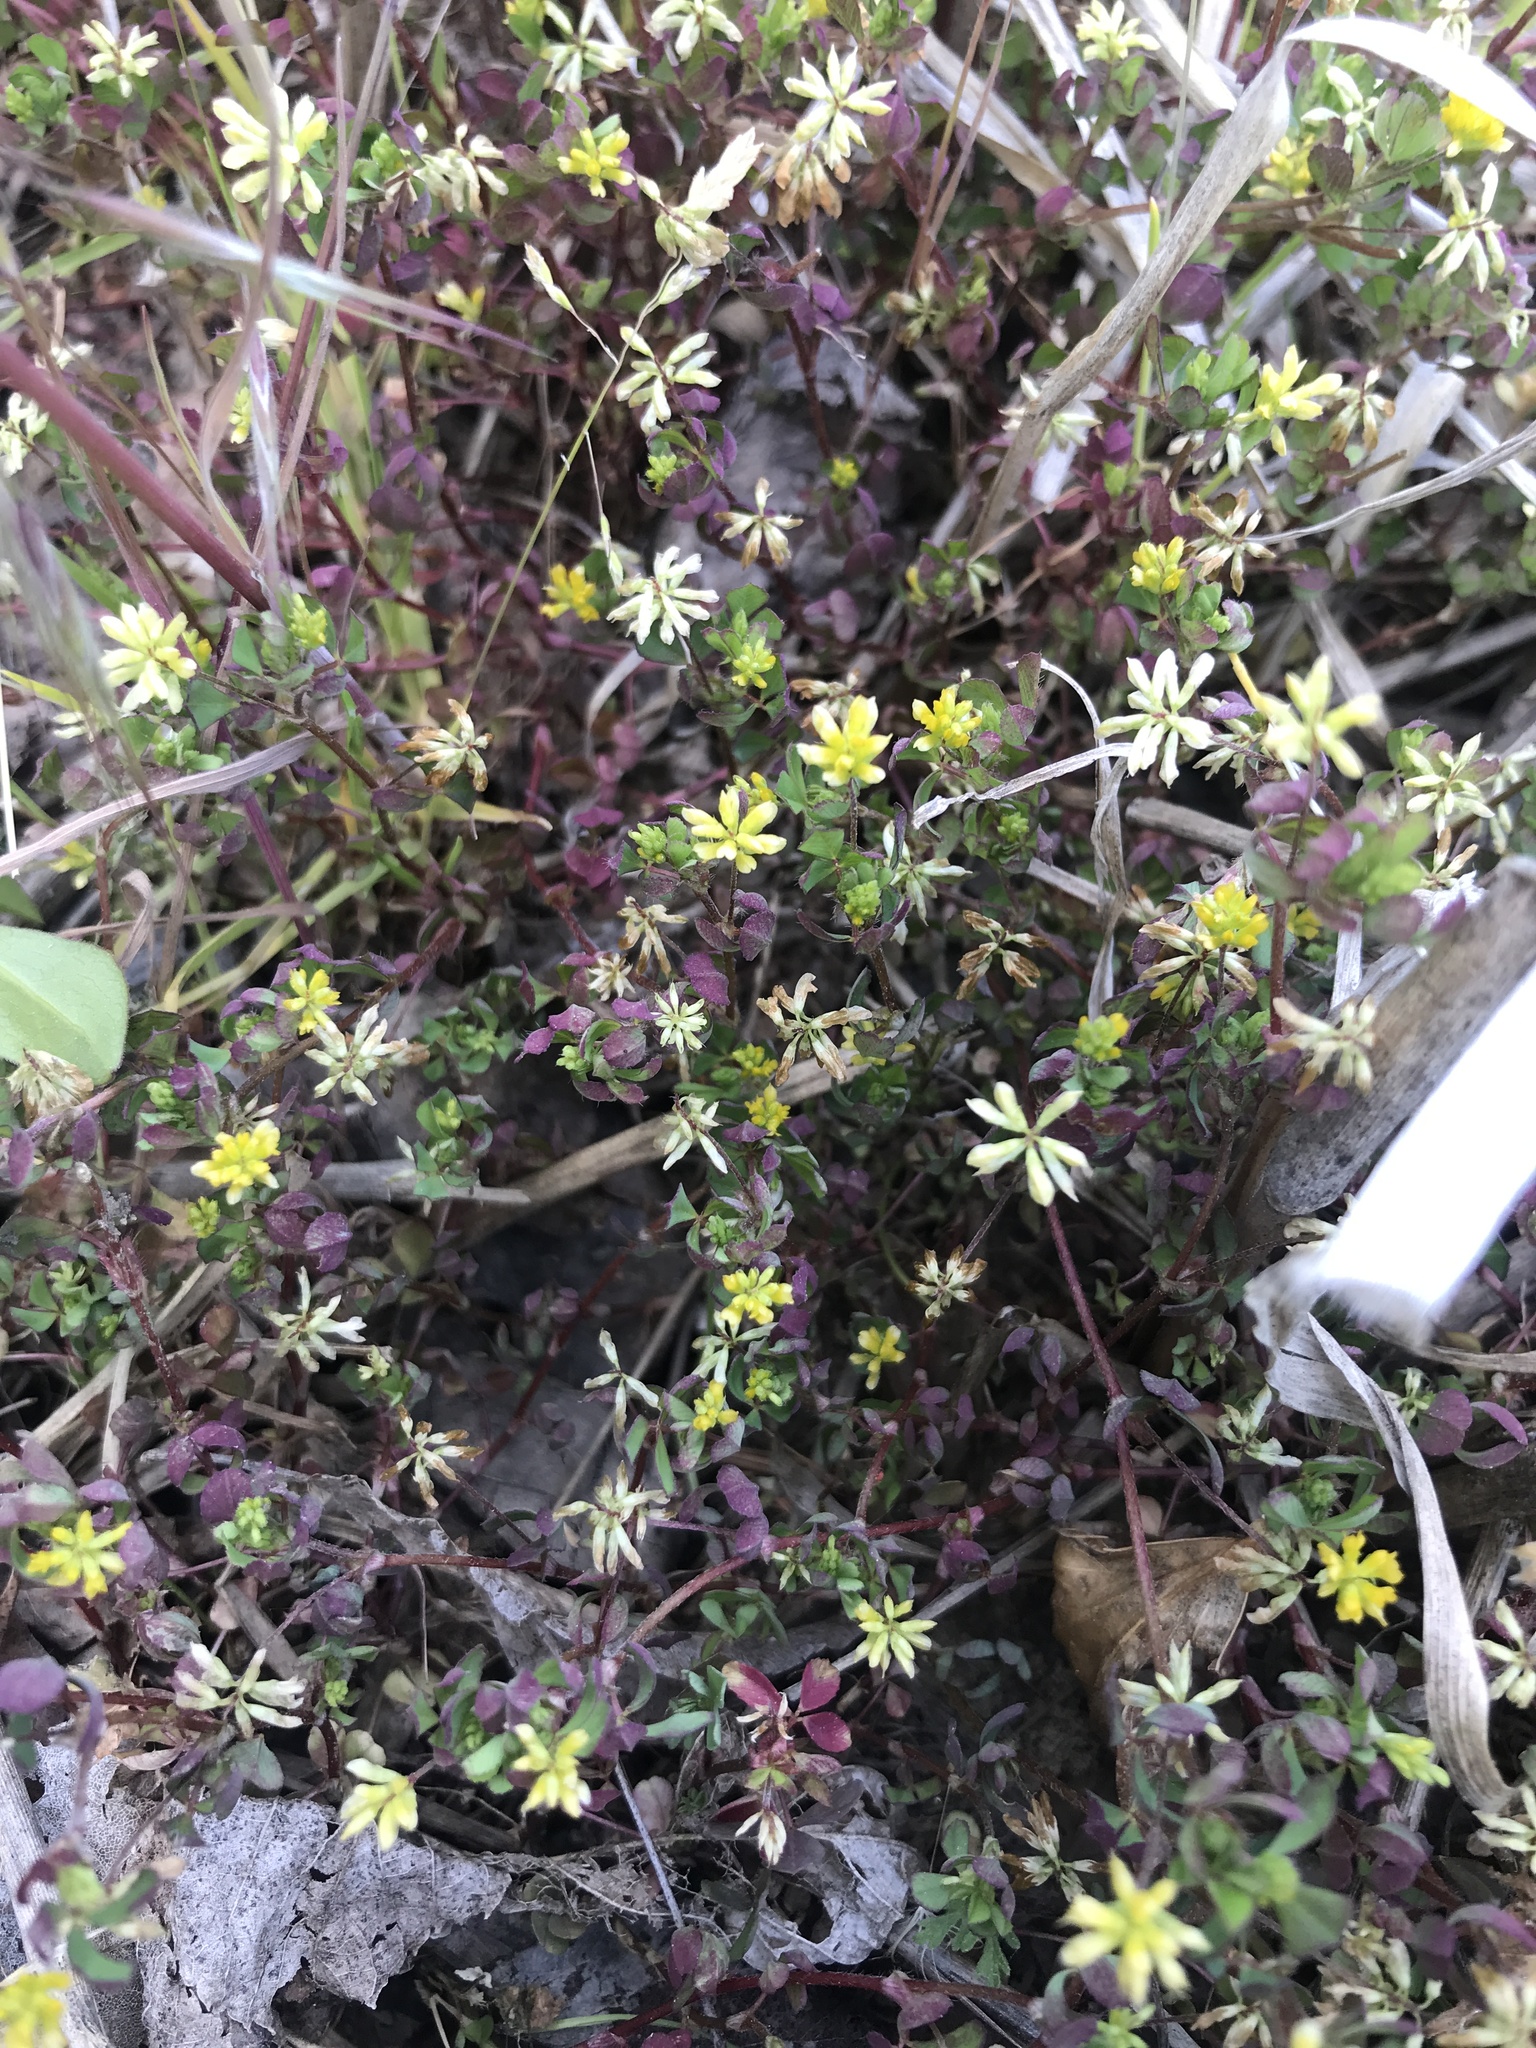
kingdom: Plantae
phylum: Tracheophyta
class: Magnoliopsida
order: Fabales
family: Fabaceae
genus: Trifolium
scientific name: Trifolium dubium
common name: Suckling clover
